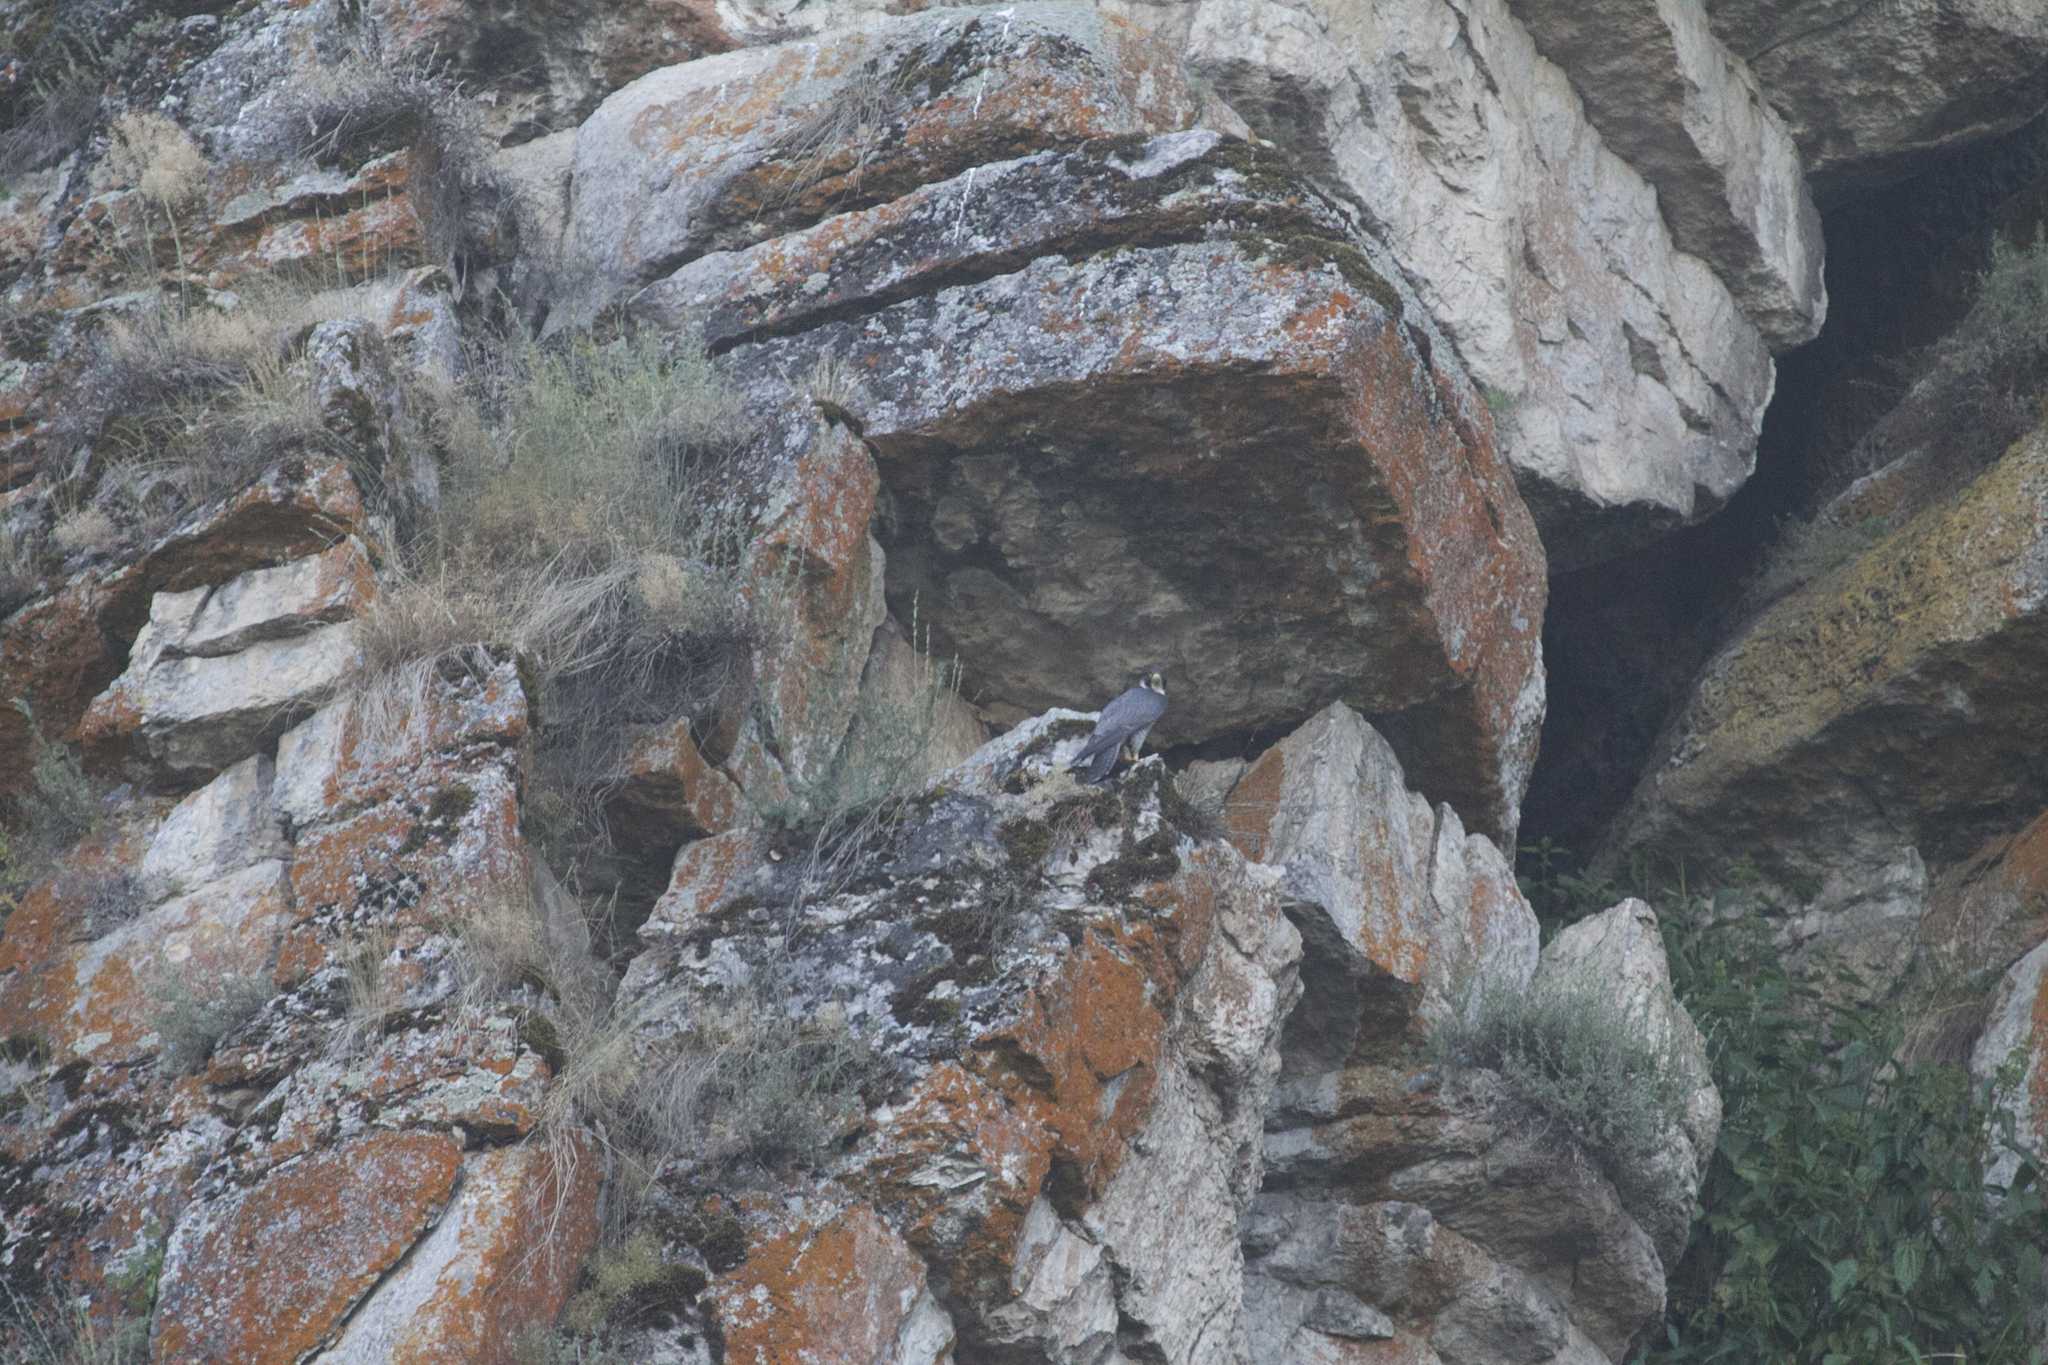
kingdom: Animalia
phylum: Chordata
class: Aves
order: Falconiformes
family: Falconidae
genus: Falco
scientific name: Falco peregrinus
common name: Peregrine falcon
